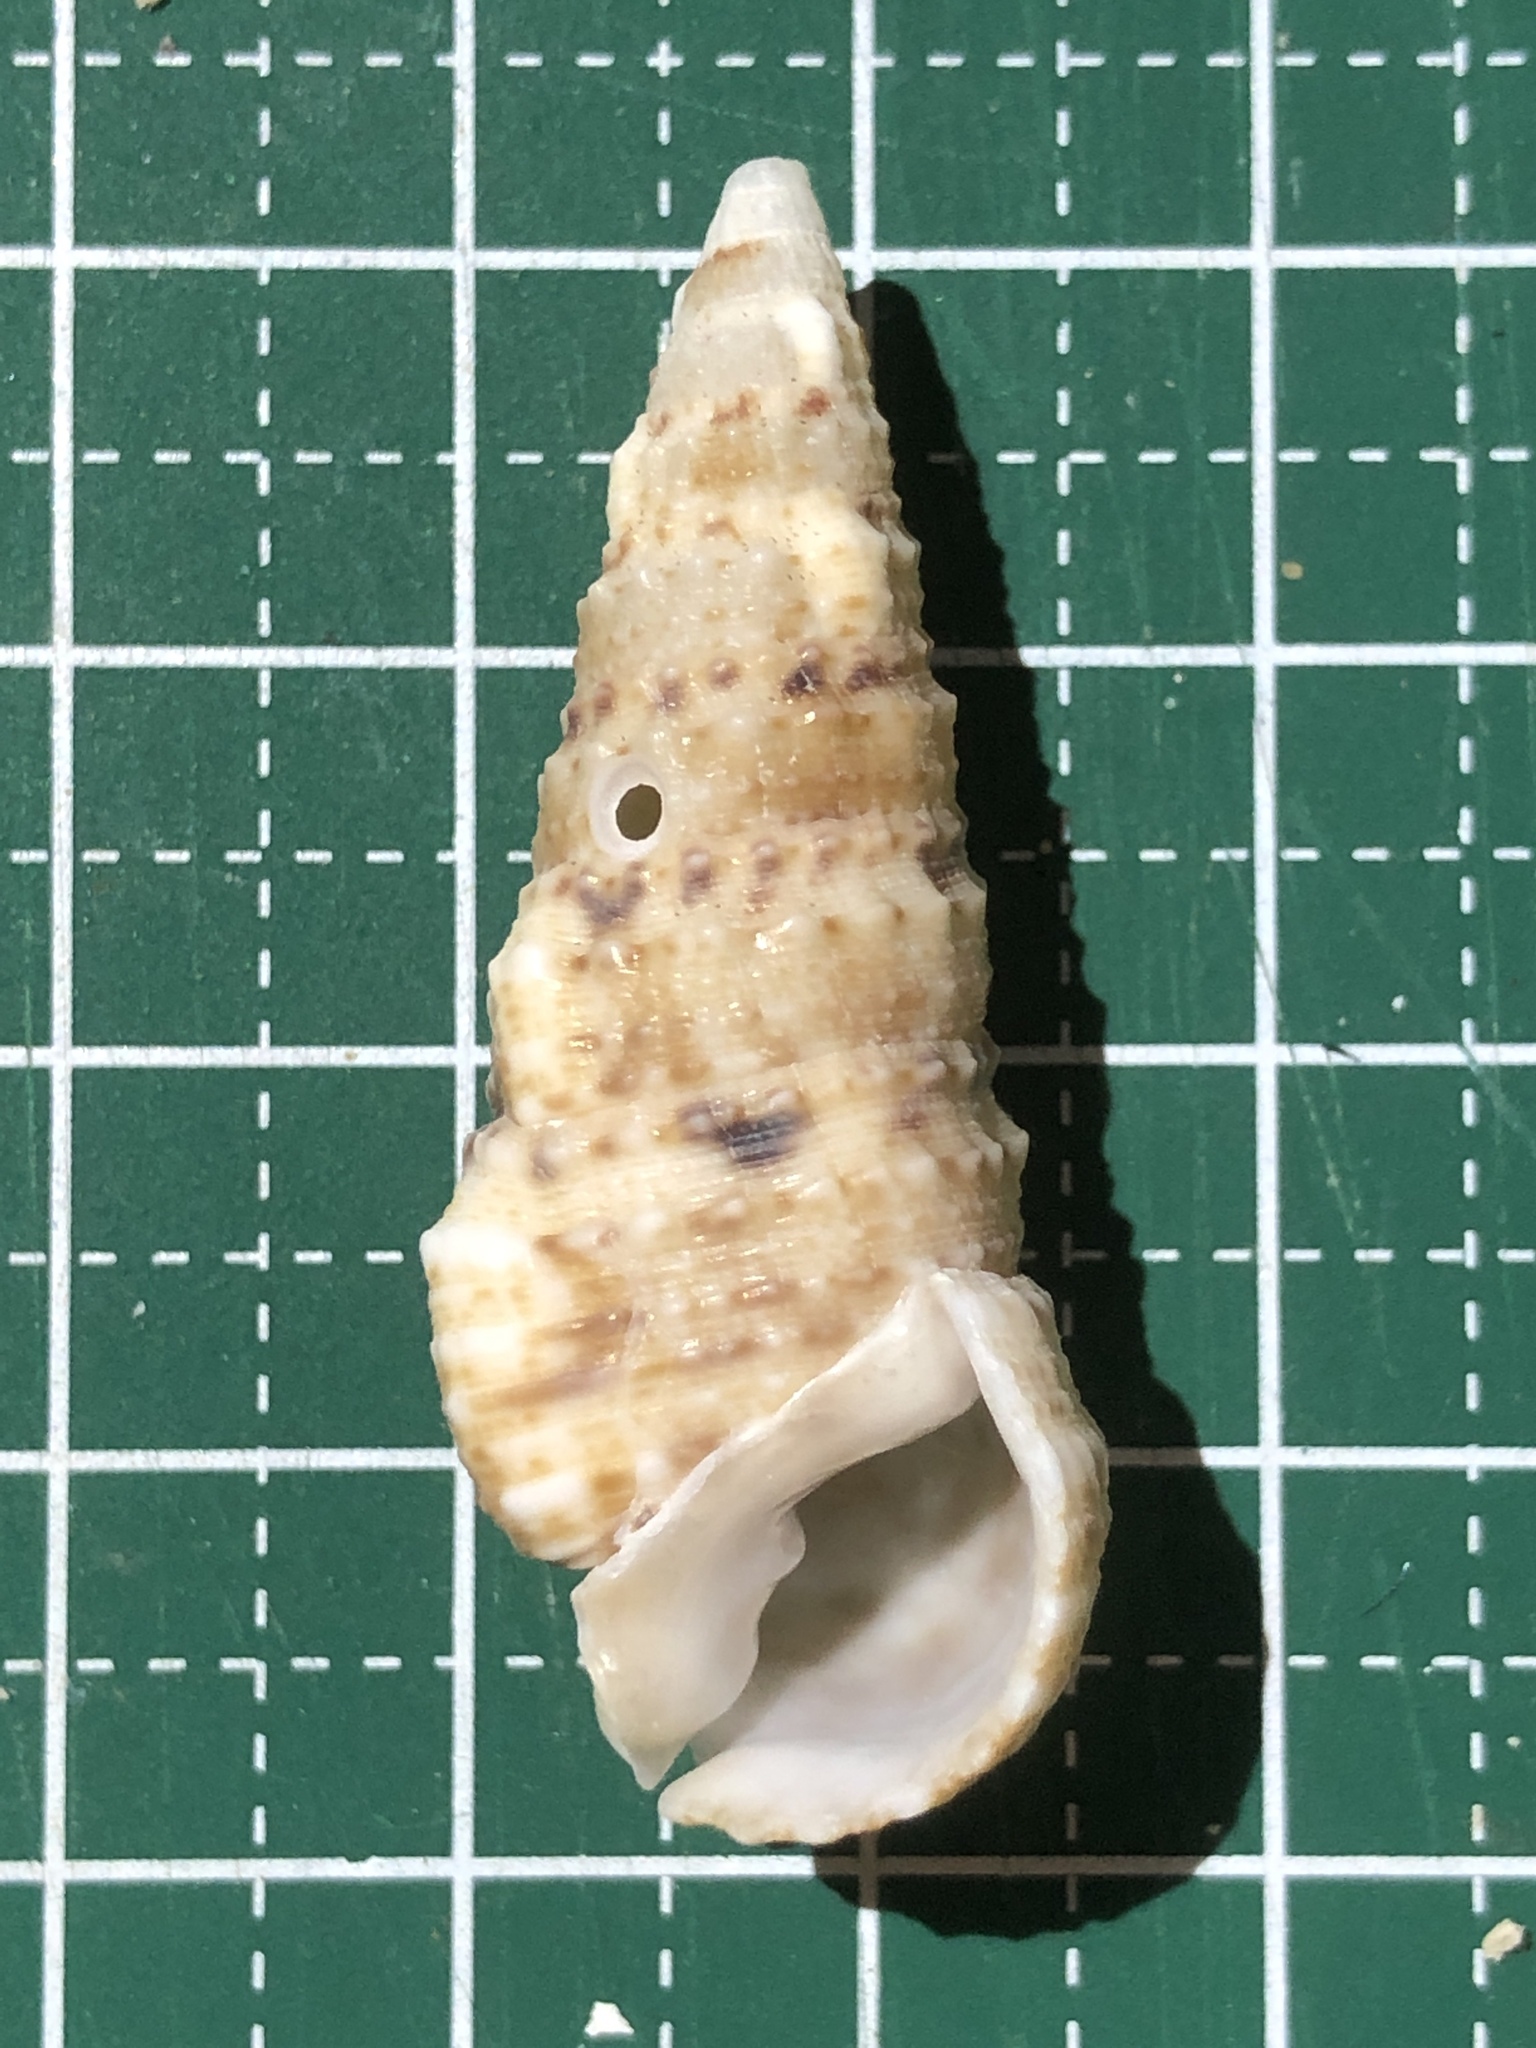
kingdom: Animalia
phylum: Mollusca
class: Gastropoda
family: Cerithiidae
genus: Rhinoclavis
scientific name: Rhinoclavis sinensis
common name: Knobbled horn shell
